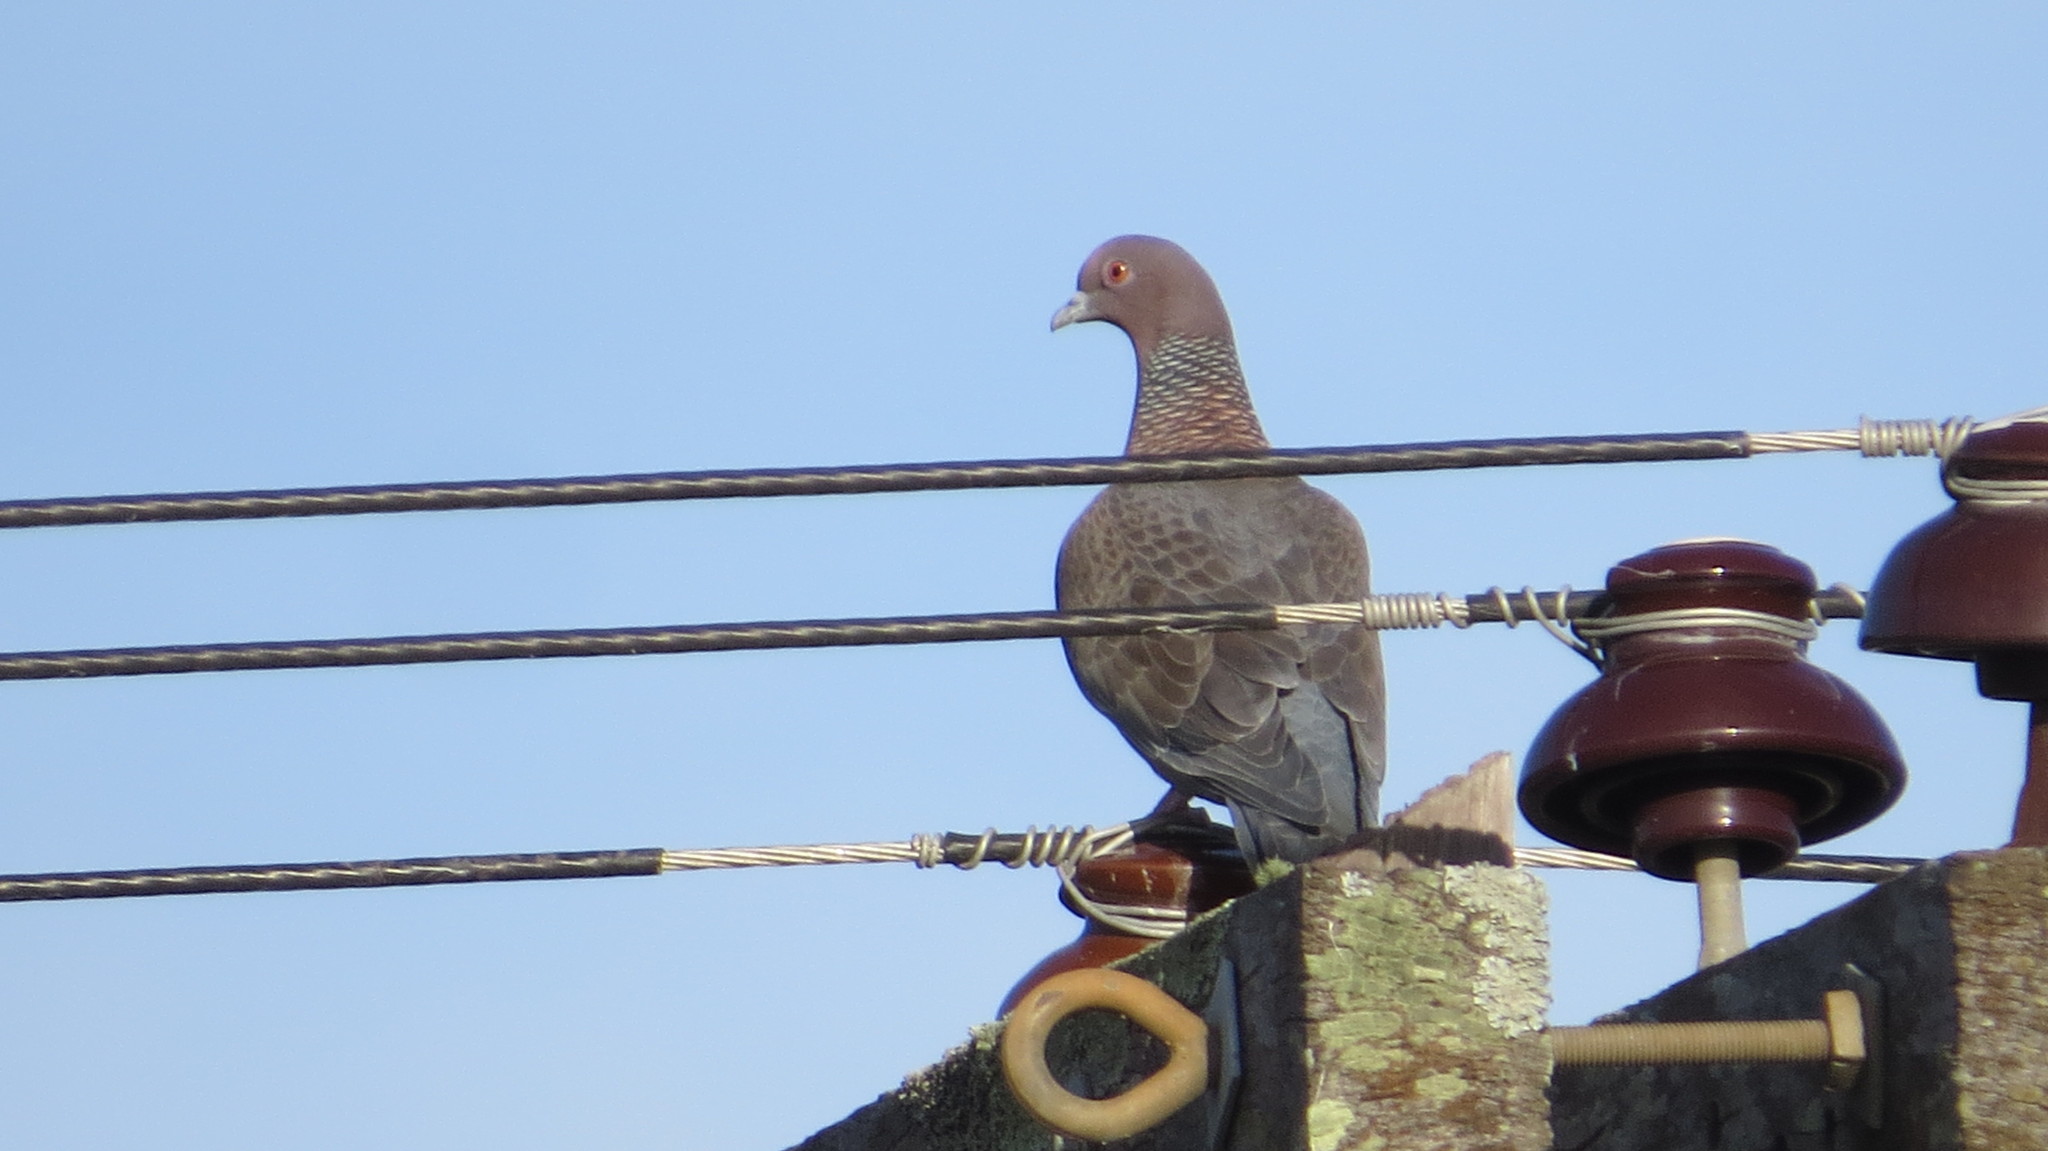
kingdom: Animalia
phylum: Chordata
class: Aves
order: Columbiformes
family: Columbidae
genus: Patagioenas
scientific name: Patagioenas picazuro
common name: Picazuro pigeon
